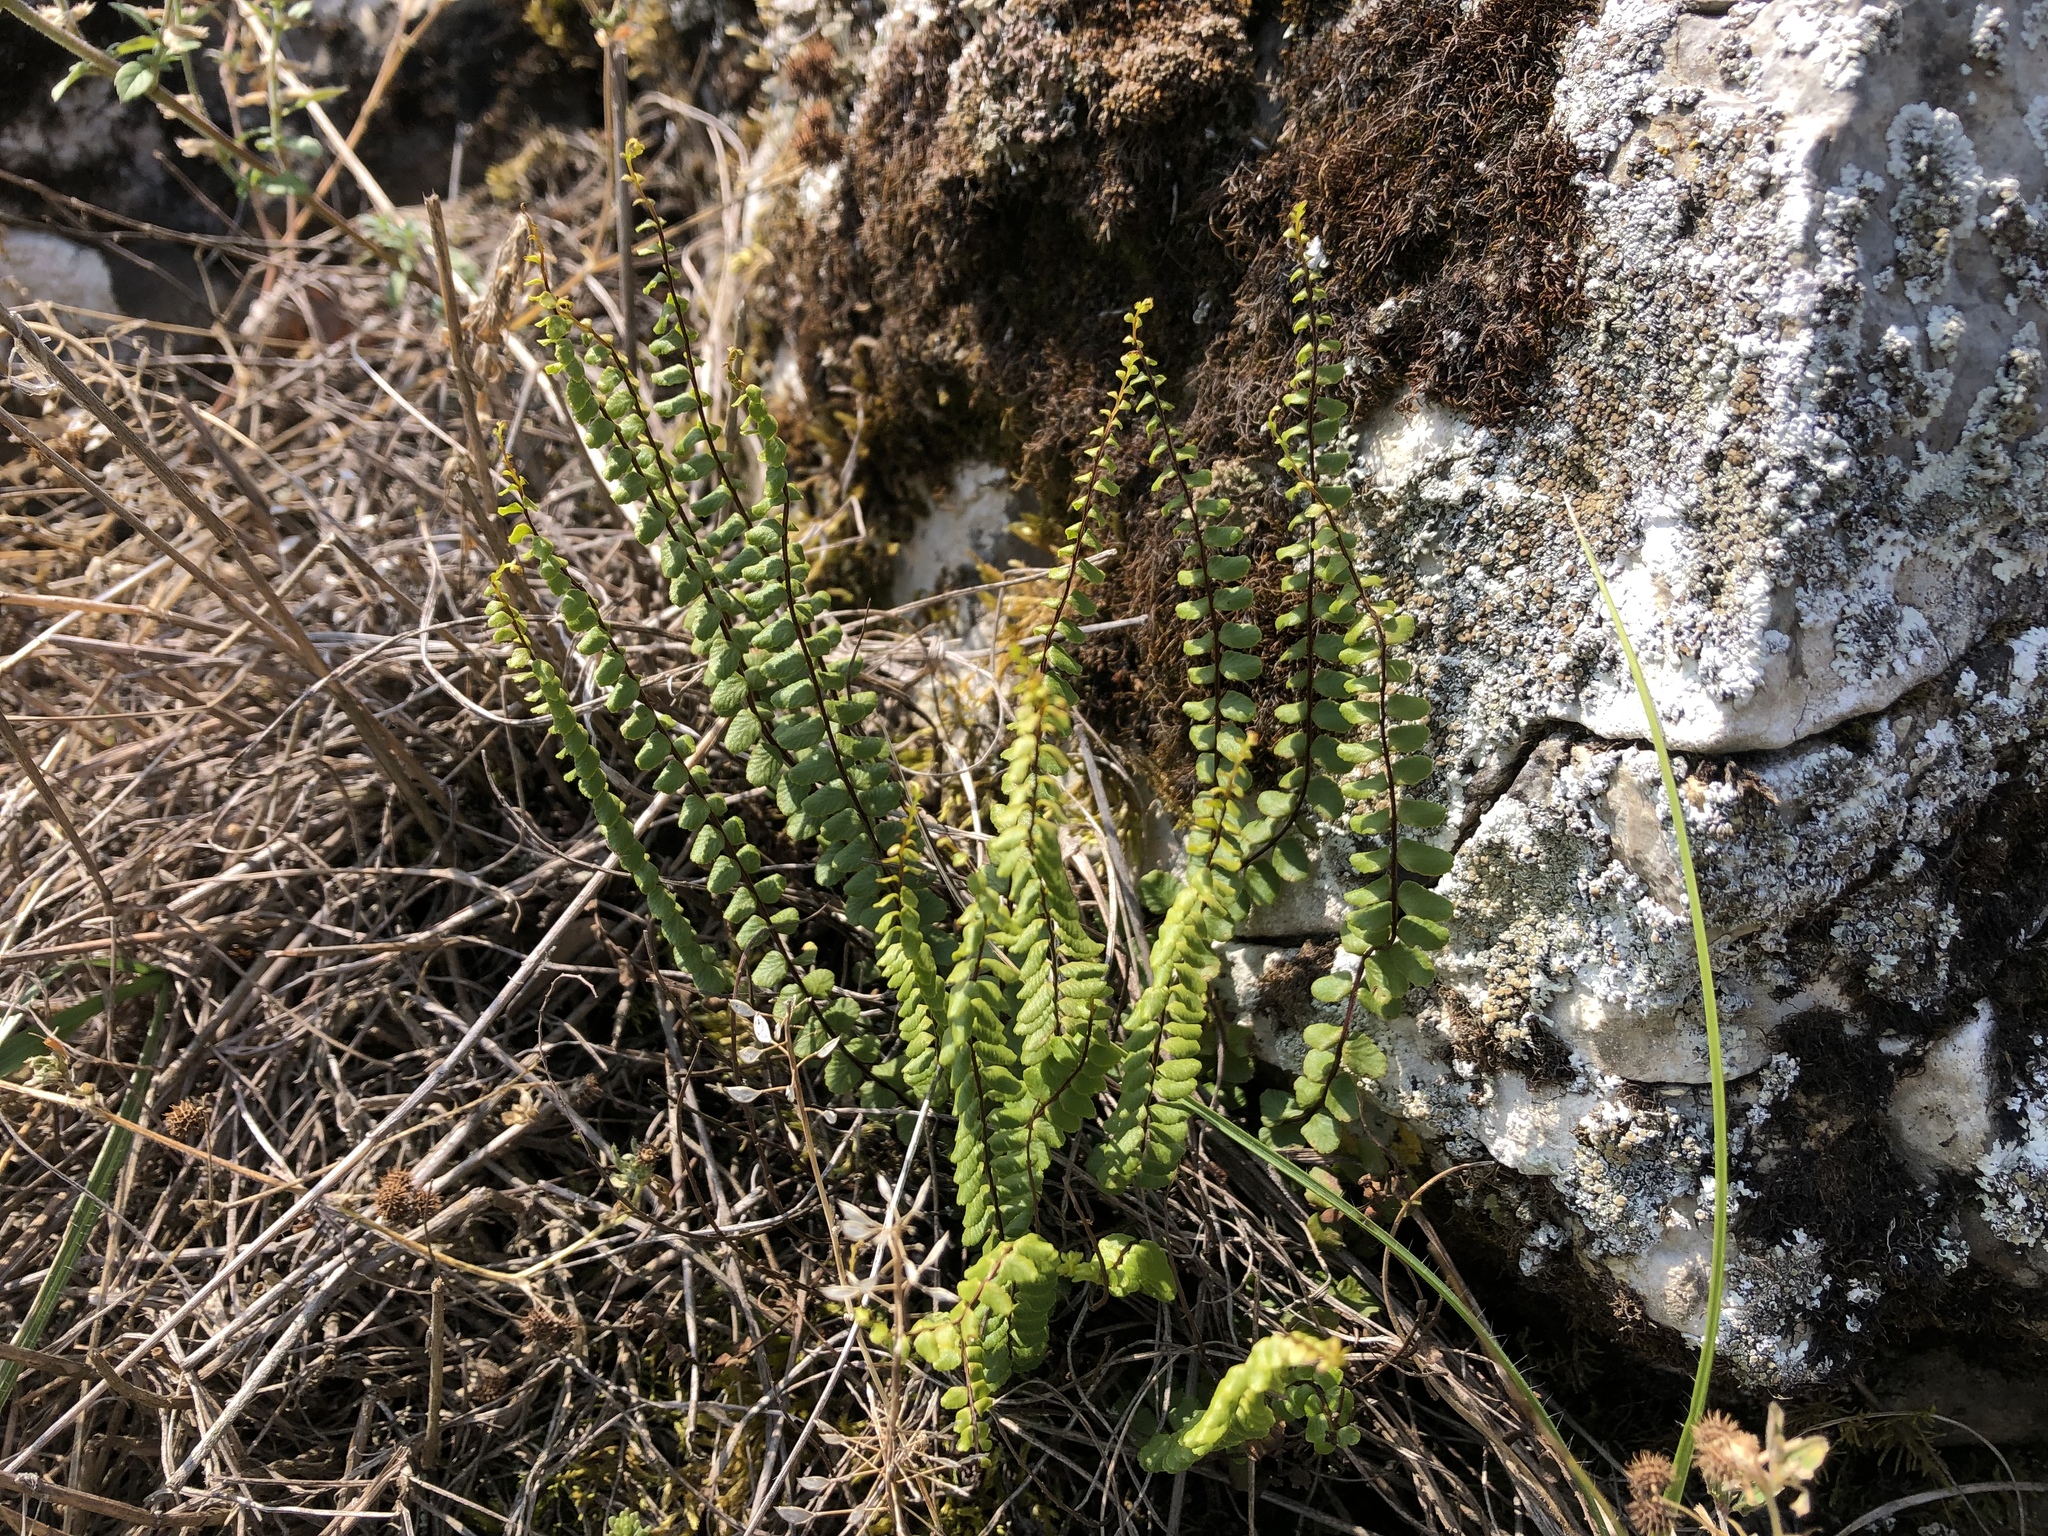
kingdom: Plantae
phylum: Tracheophyta
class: Polypodiopsida
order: Polypodiales
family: Aspleniaceae
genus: Asplenium
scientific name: Asplenium trichomanes
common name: Maidenhair spleenwort
